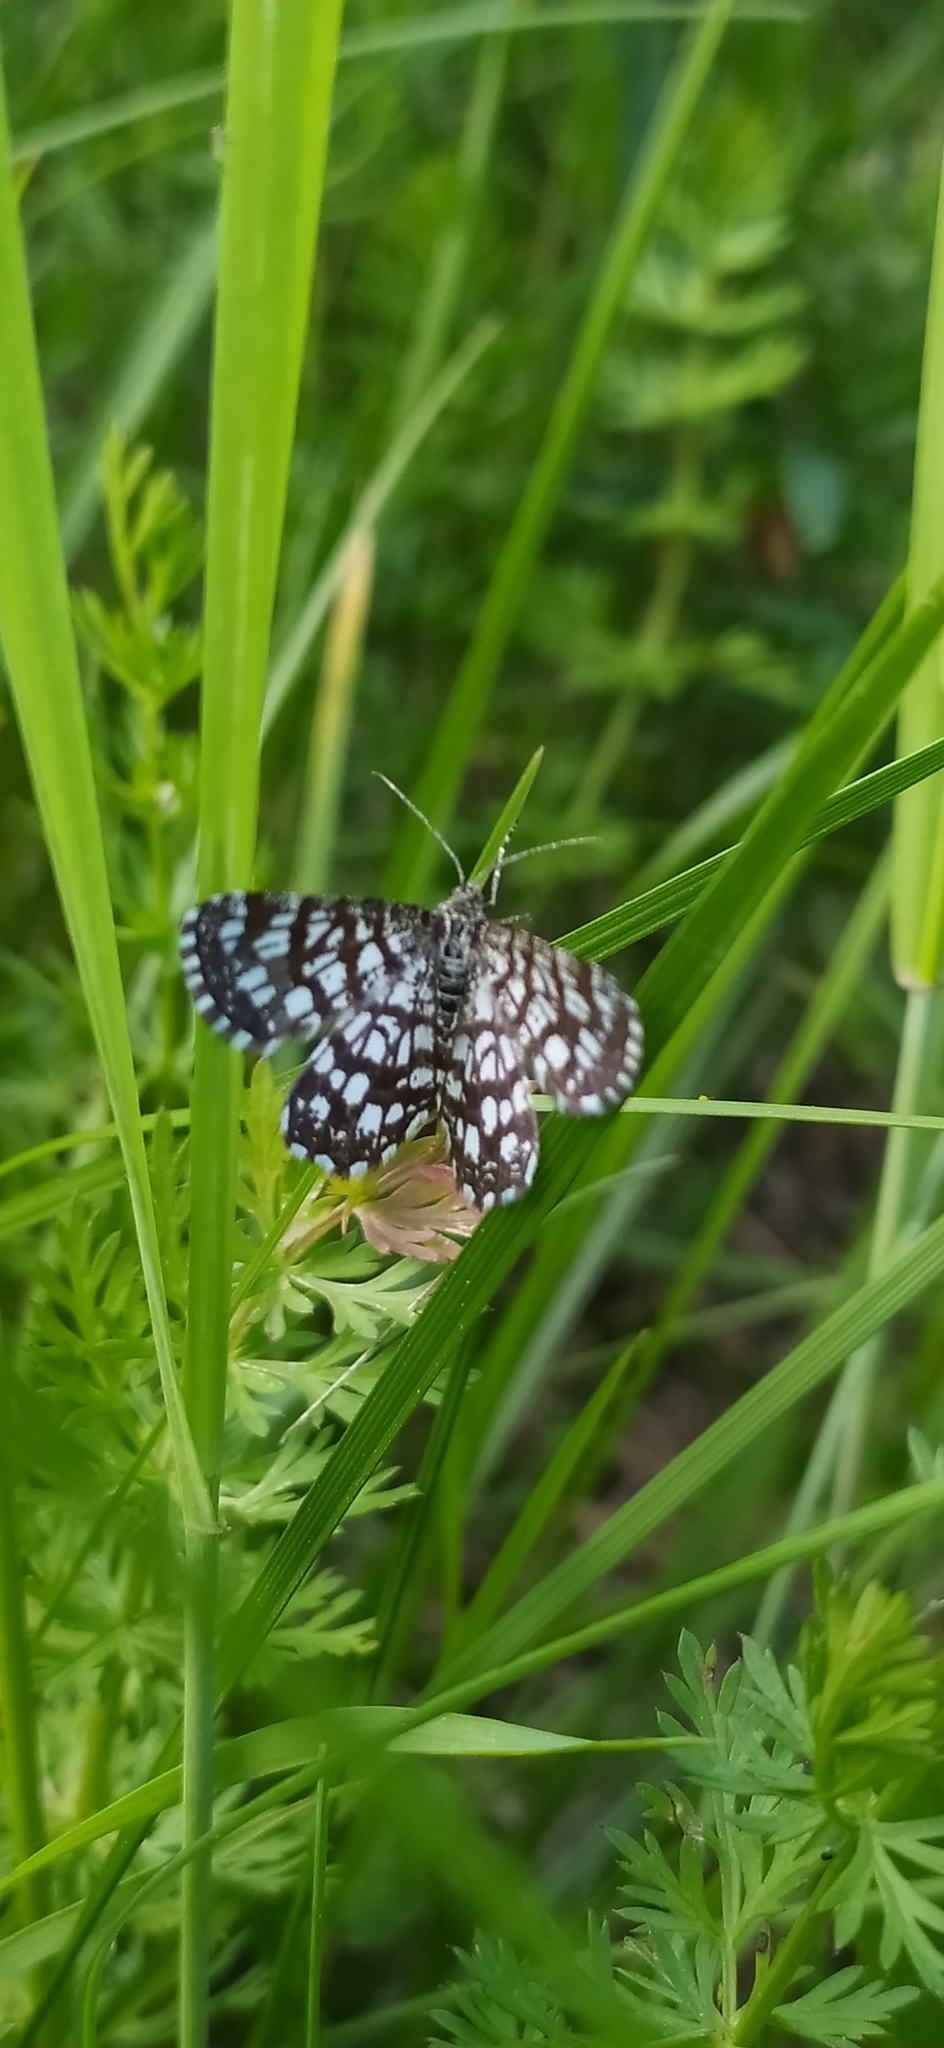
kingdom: Animalia
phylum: Arthropoda
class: Insecta
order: Lepidoptera
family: Geometridae
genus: Chiasmia
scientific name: Chiasmia clathrata
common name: Latticed heath
